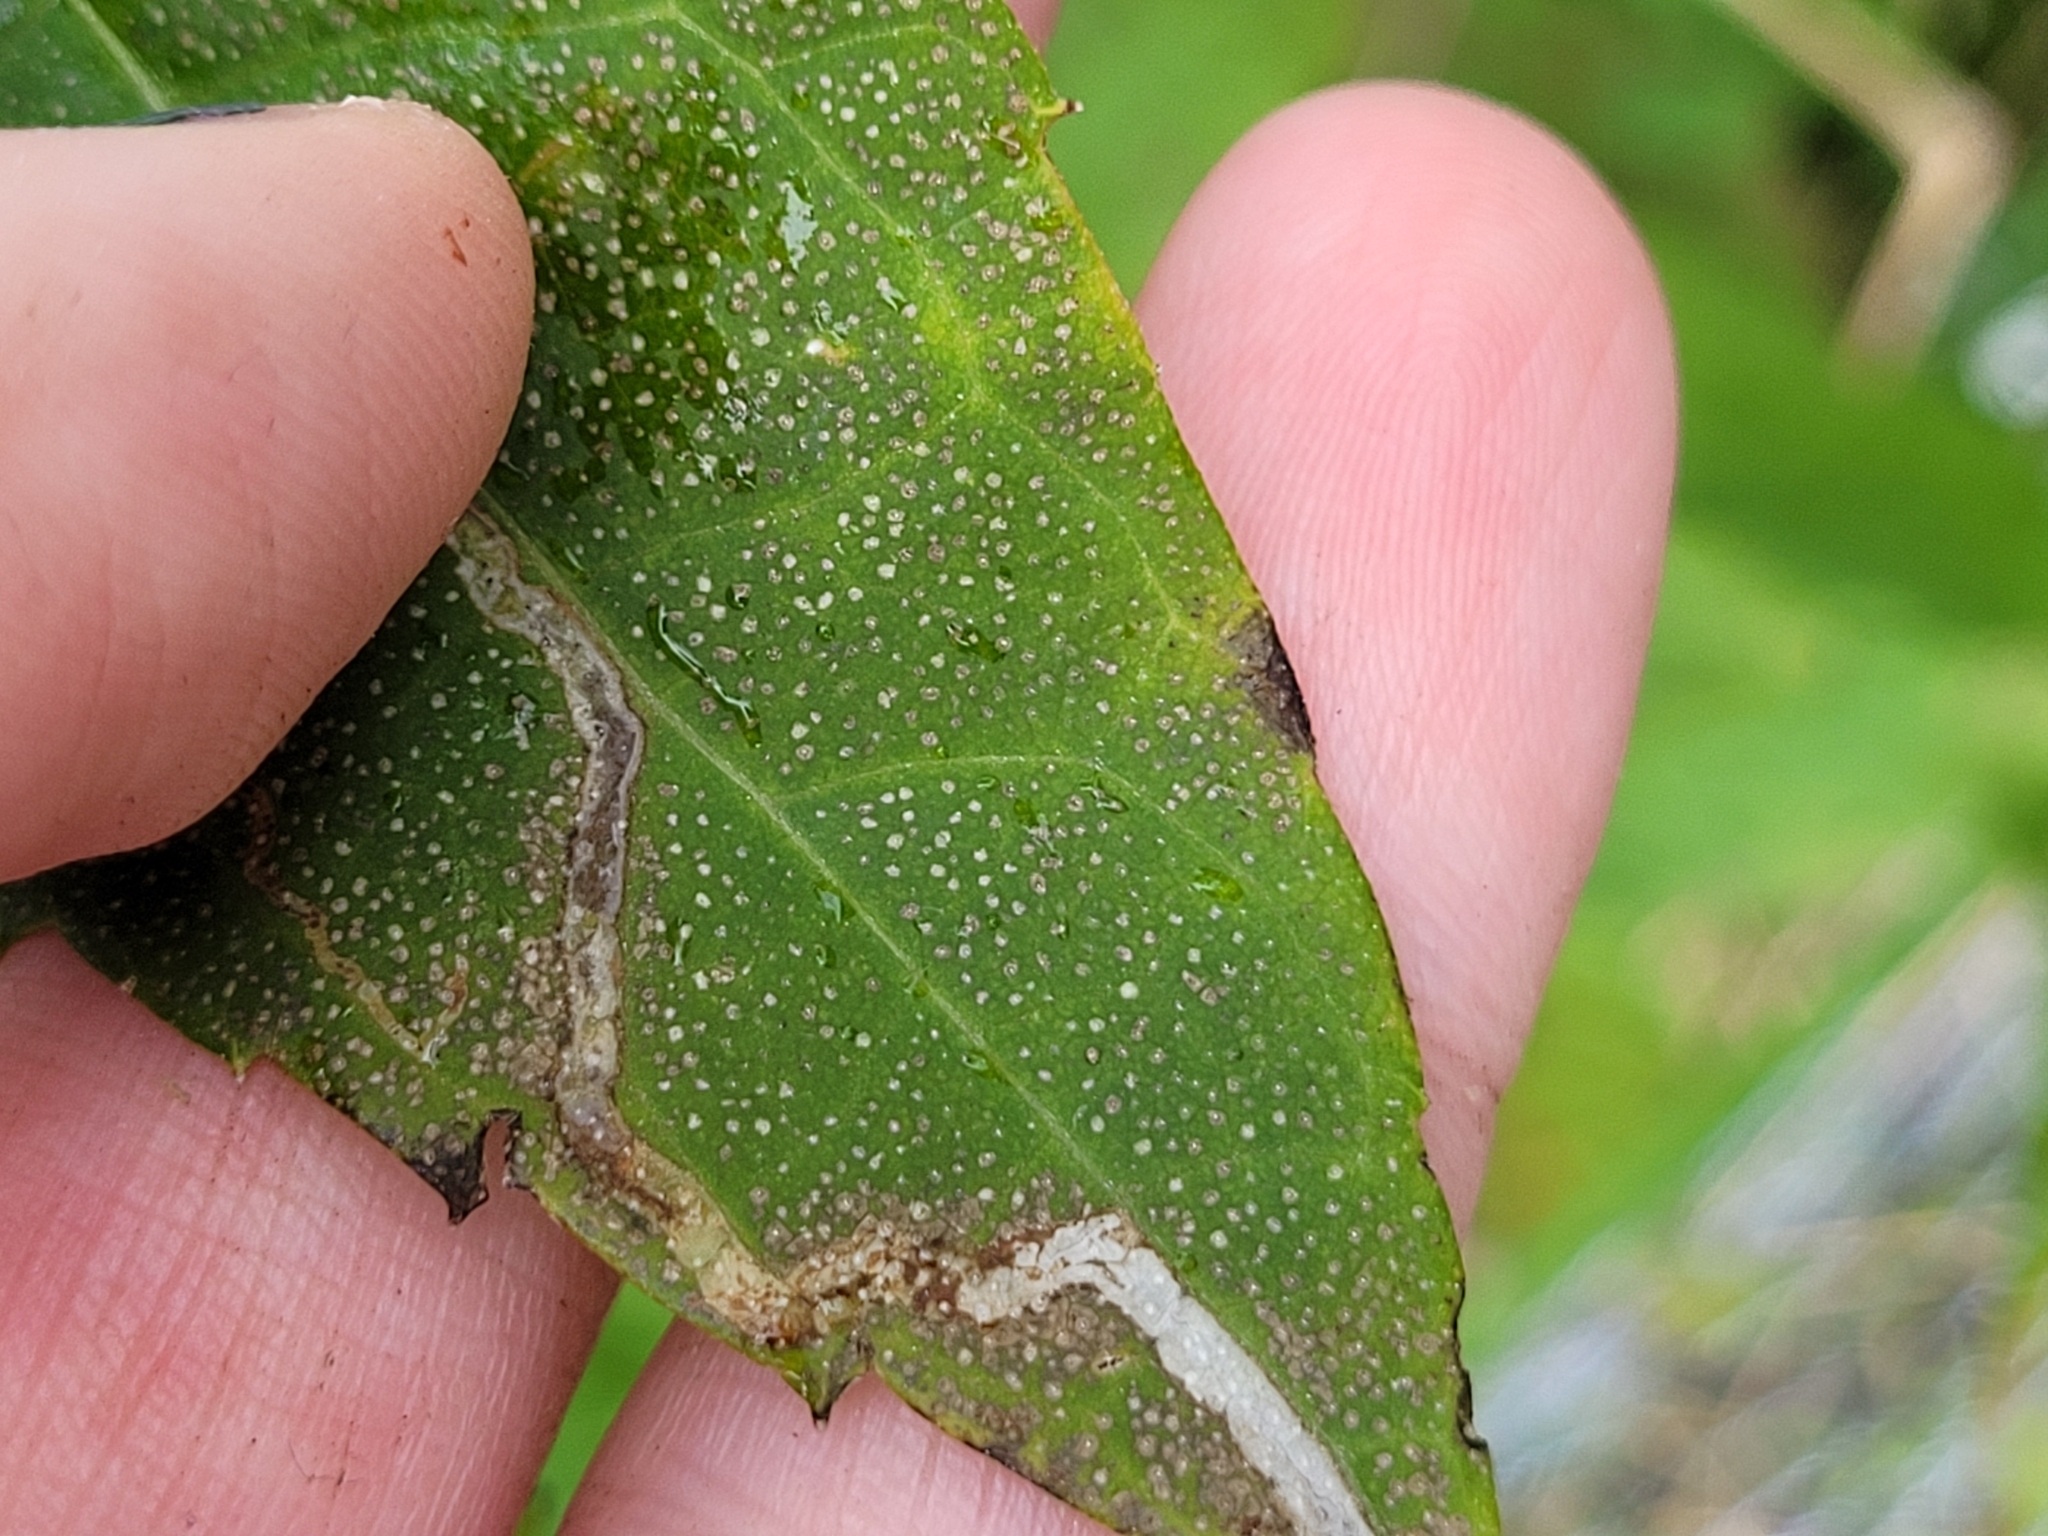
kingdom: Animalia
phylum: Arthropoda
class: Insecta
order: Diptera
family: Agromyzidae
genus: Liriomyza
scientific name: Liriomyza arctii
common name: Burdock leafminer
